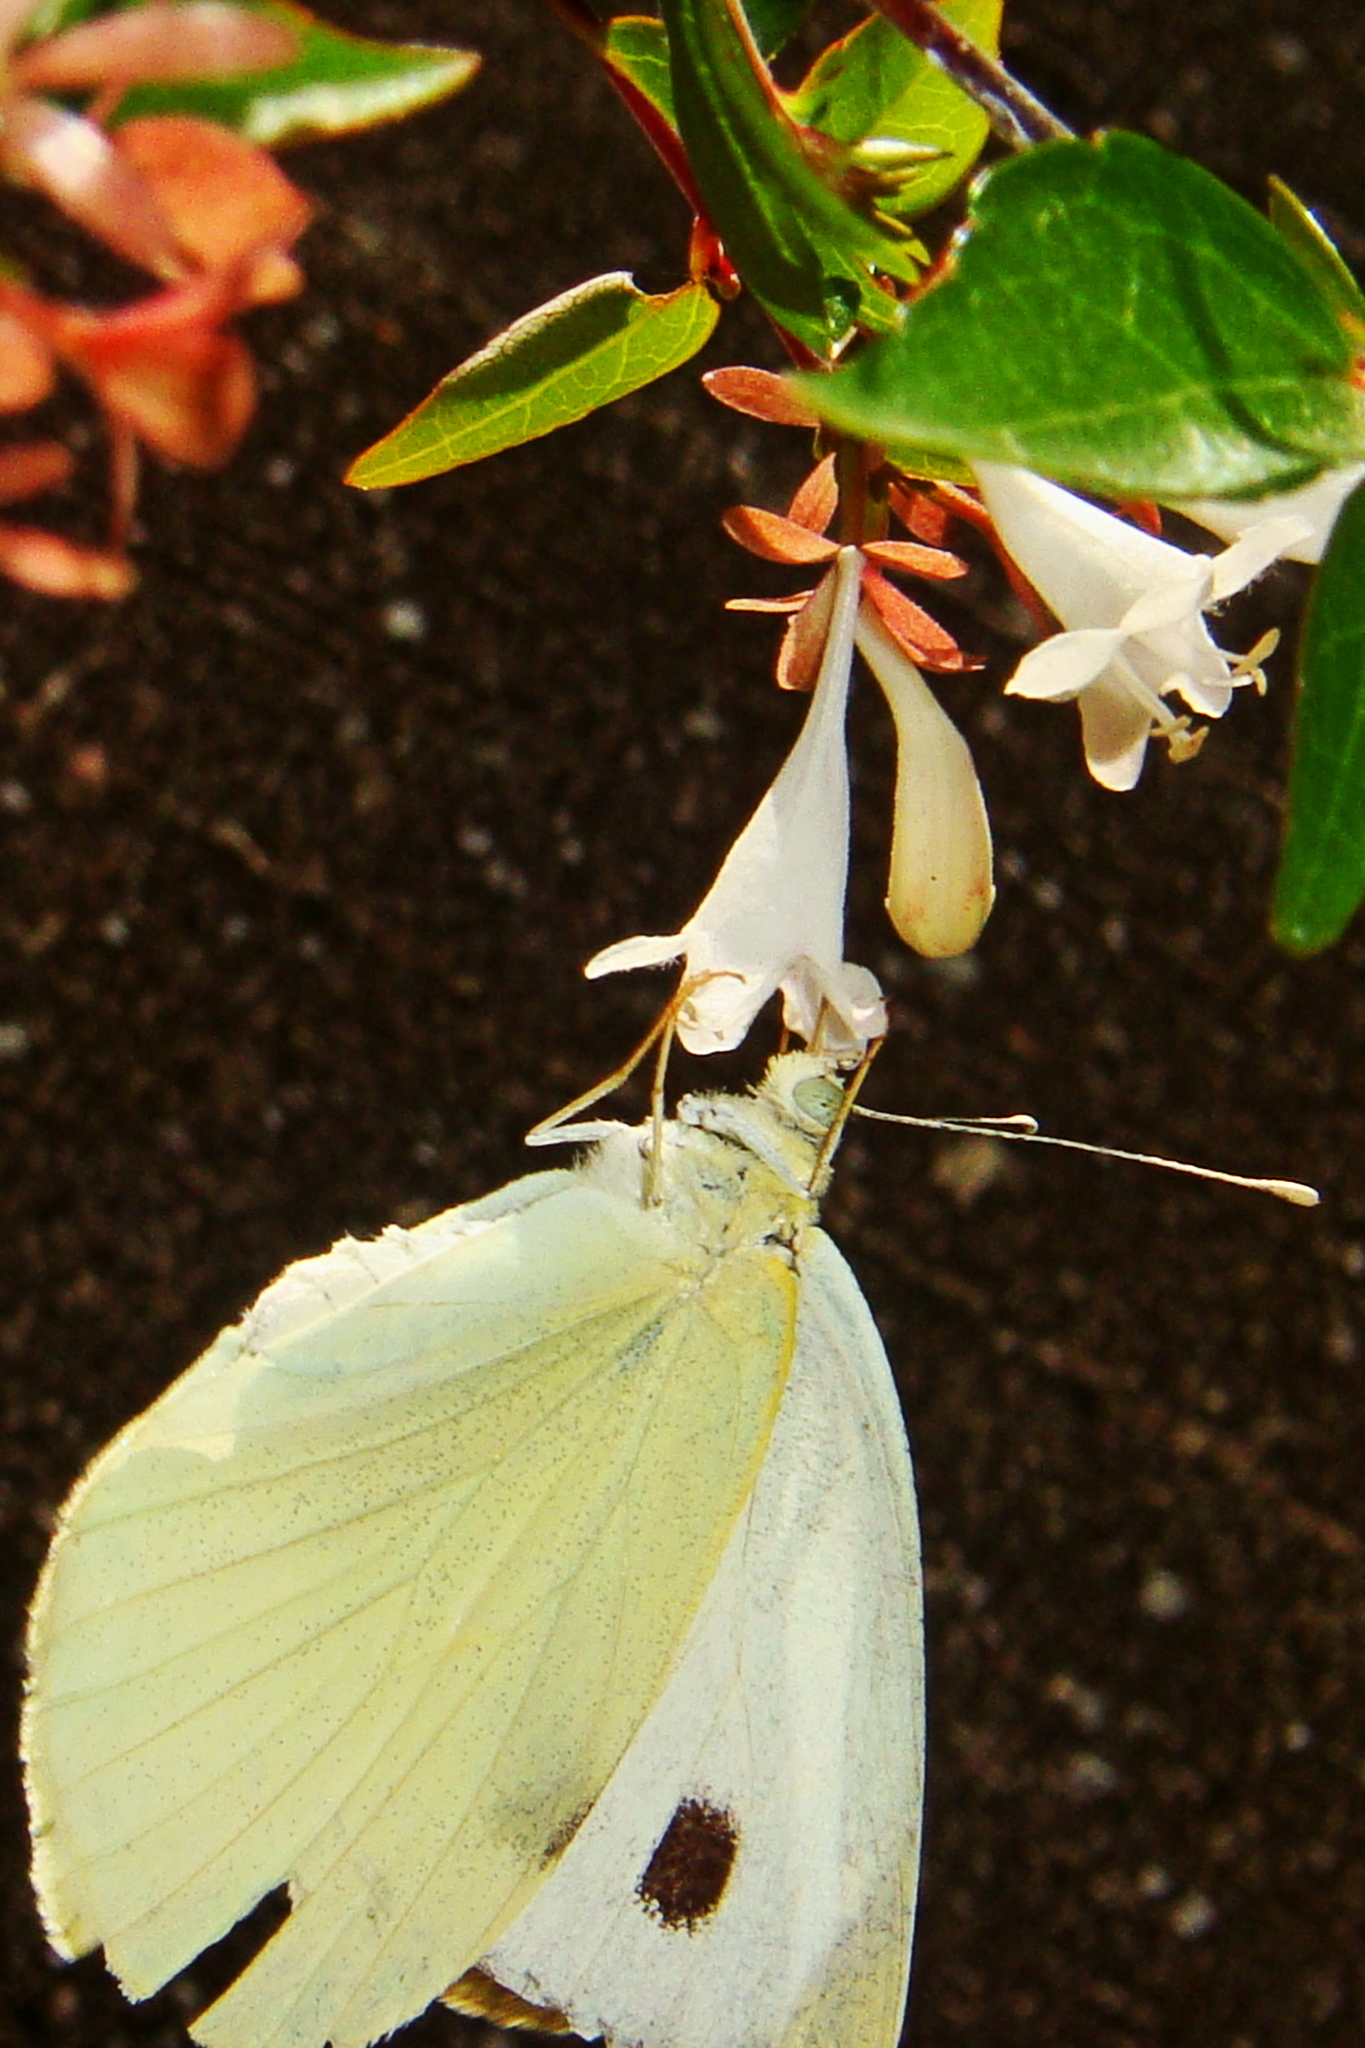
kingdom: Animalia
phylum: Arthropoda
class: Insecta
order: Lepidoptera
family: Pieridae
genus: Pieris
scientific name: Pieris brassicae
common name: Large white
